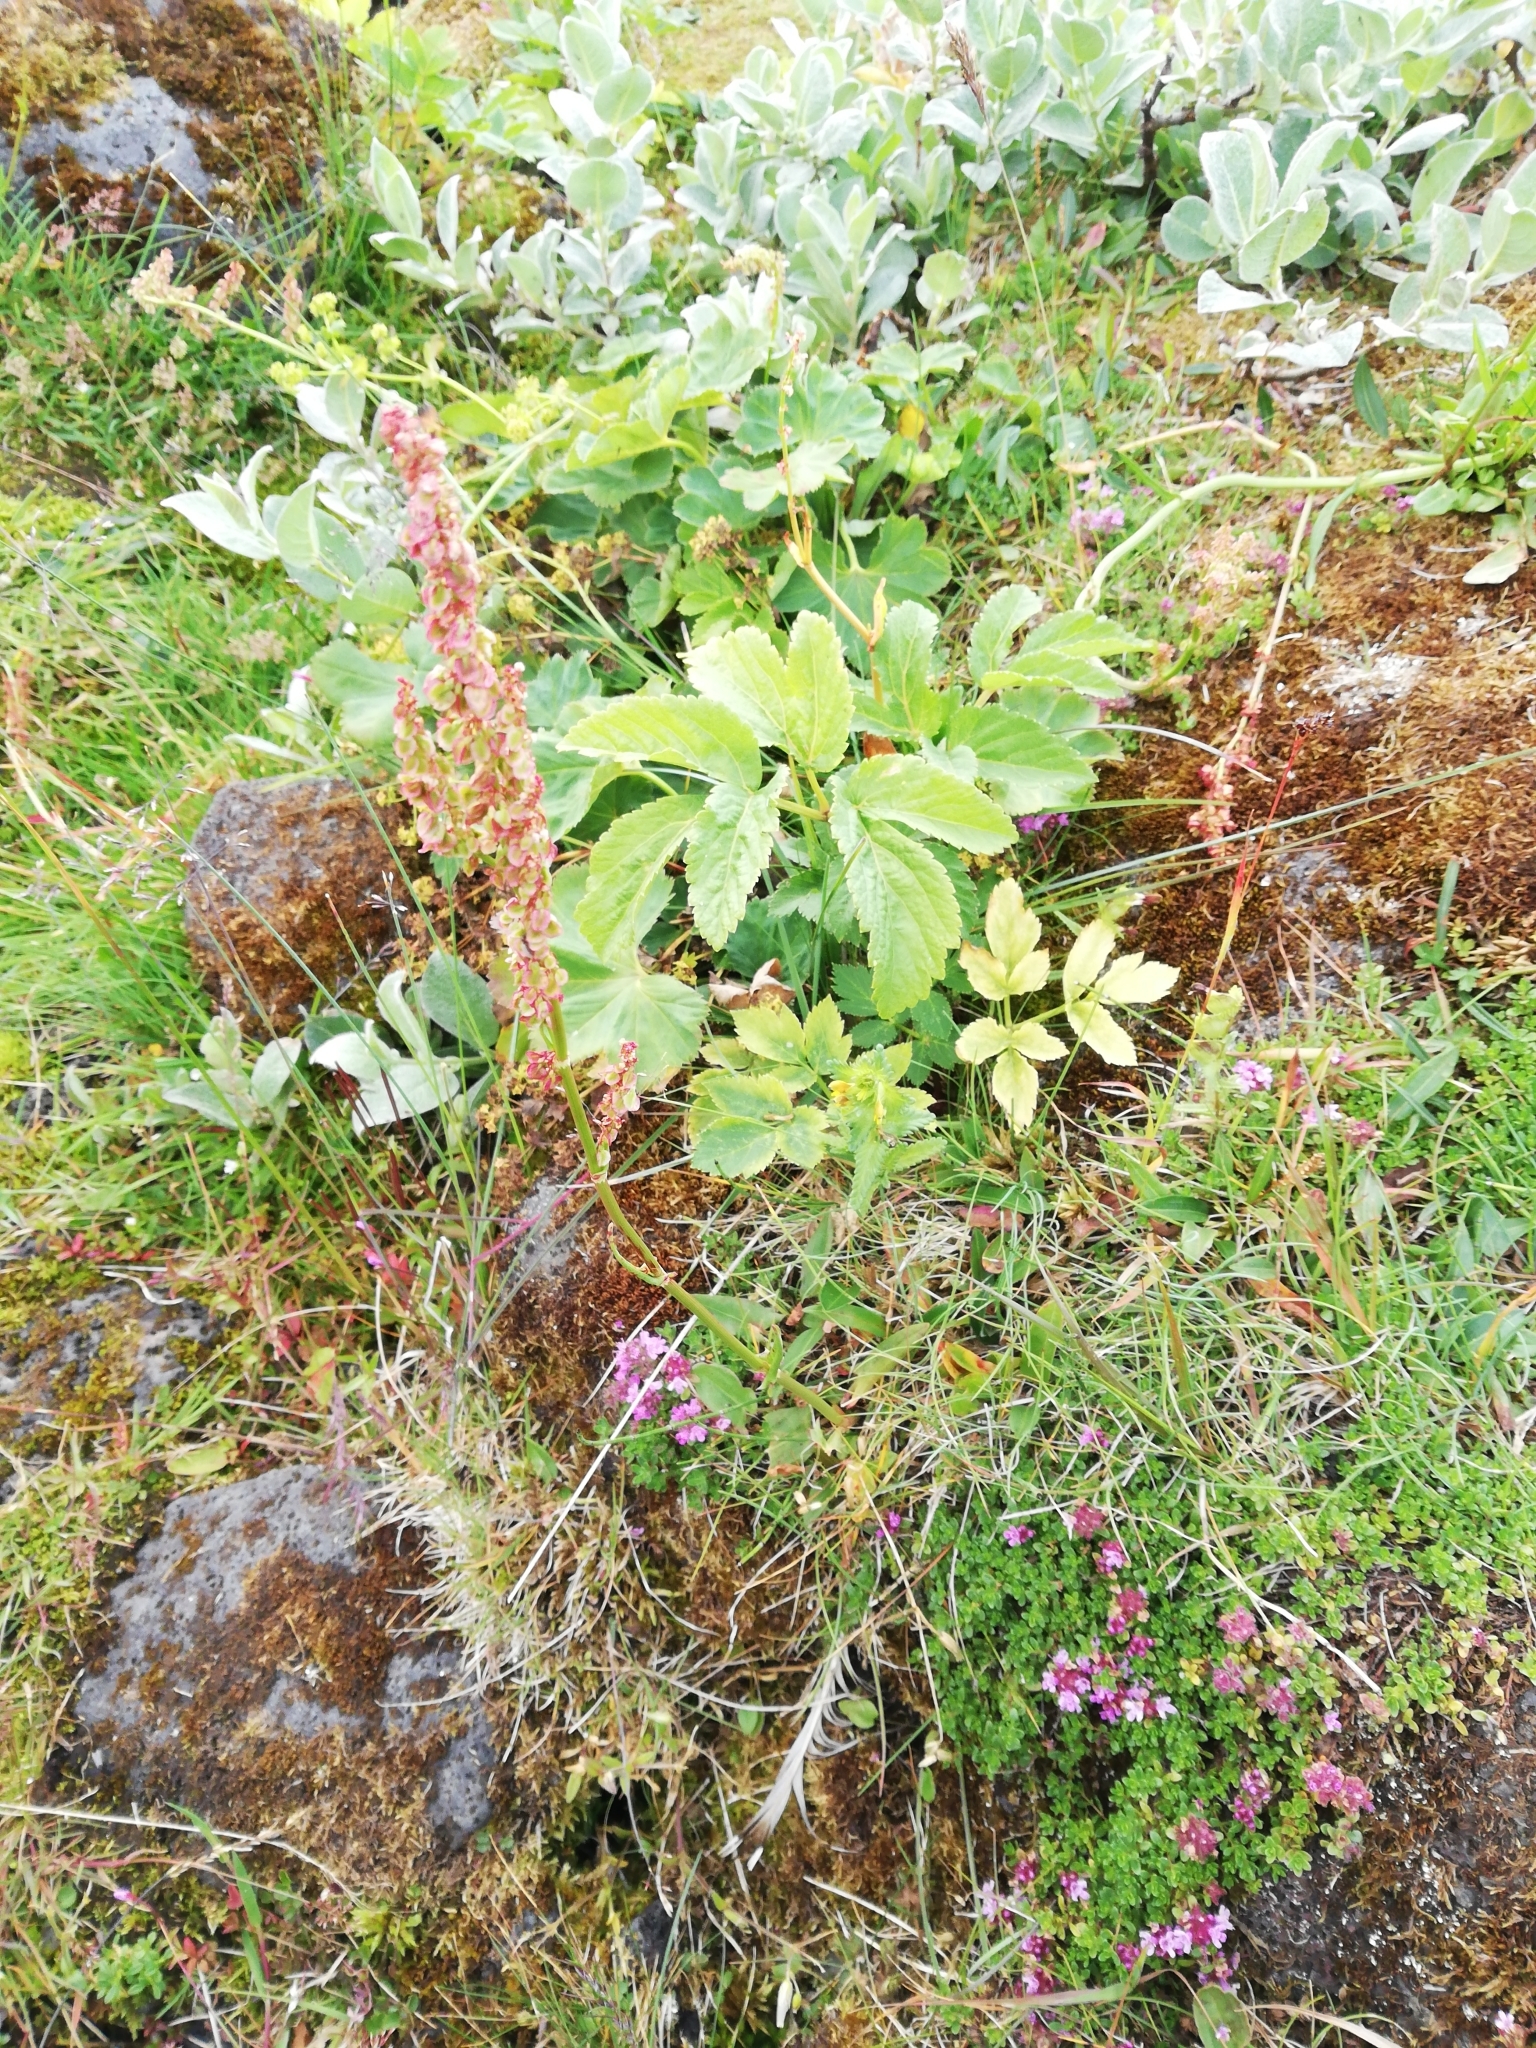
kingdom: Plantae
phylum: Tracheophyta
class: Magnoliopsida
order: Lamiales
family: Lamiaceae
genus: Thymus
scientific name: Thymus praecox
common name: Wild thyme
